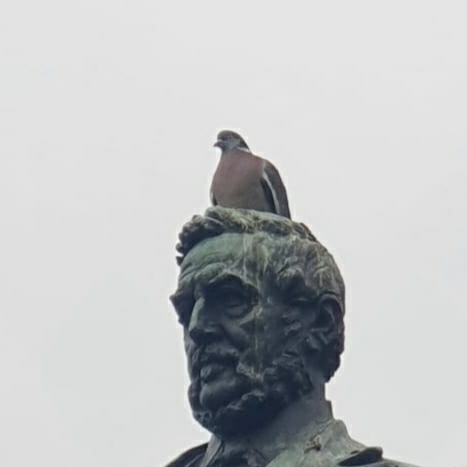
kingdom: Animalia
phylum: Chordata
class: Aves
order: Columbiformes
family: Columbidae
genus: Columba
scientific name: Columba palumbus
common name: Common wood pigeon
